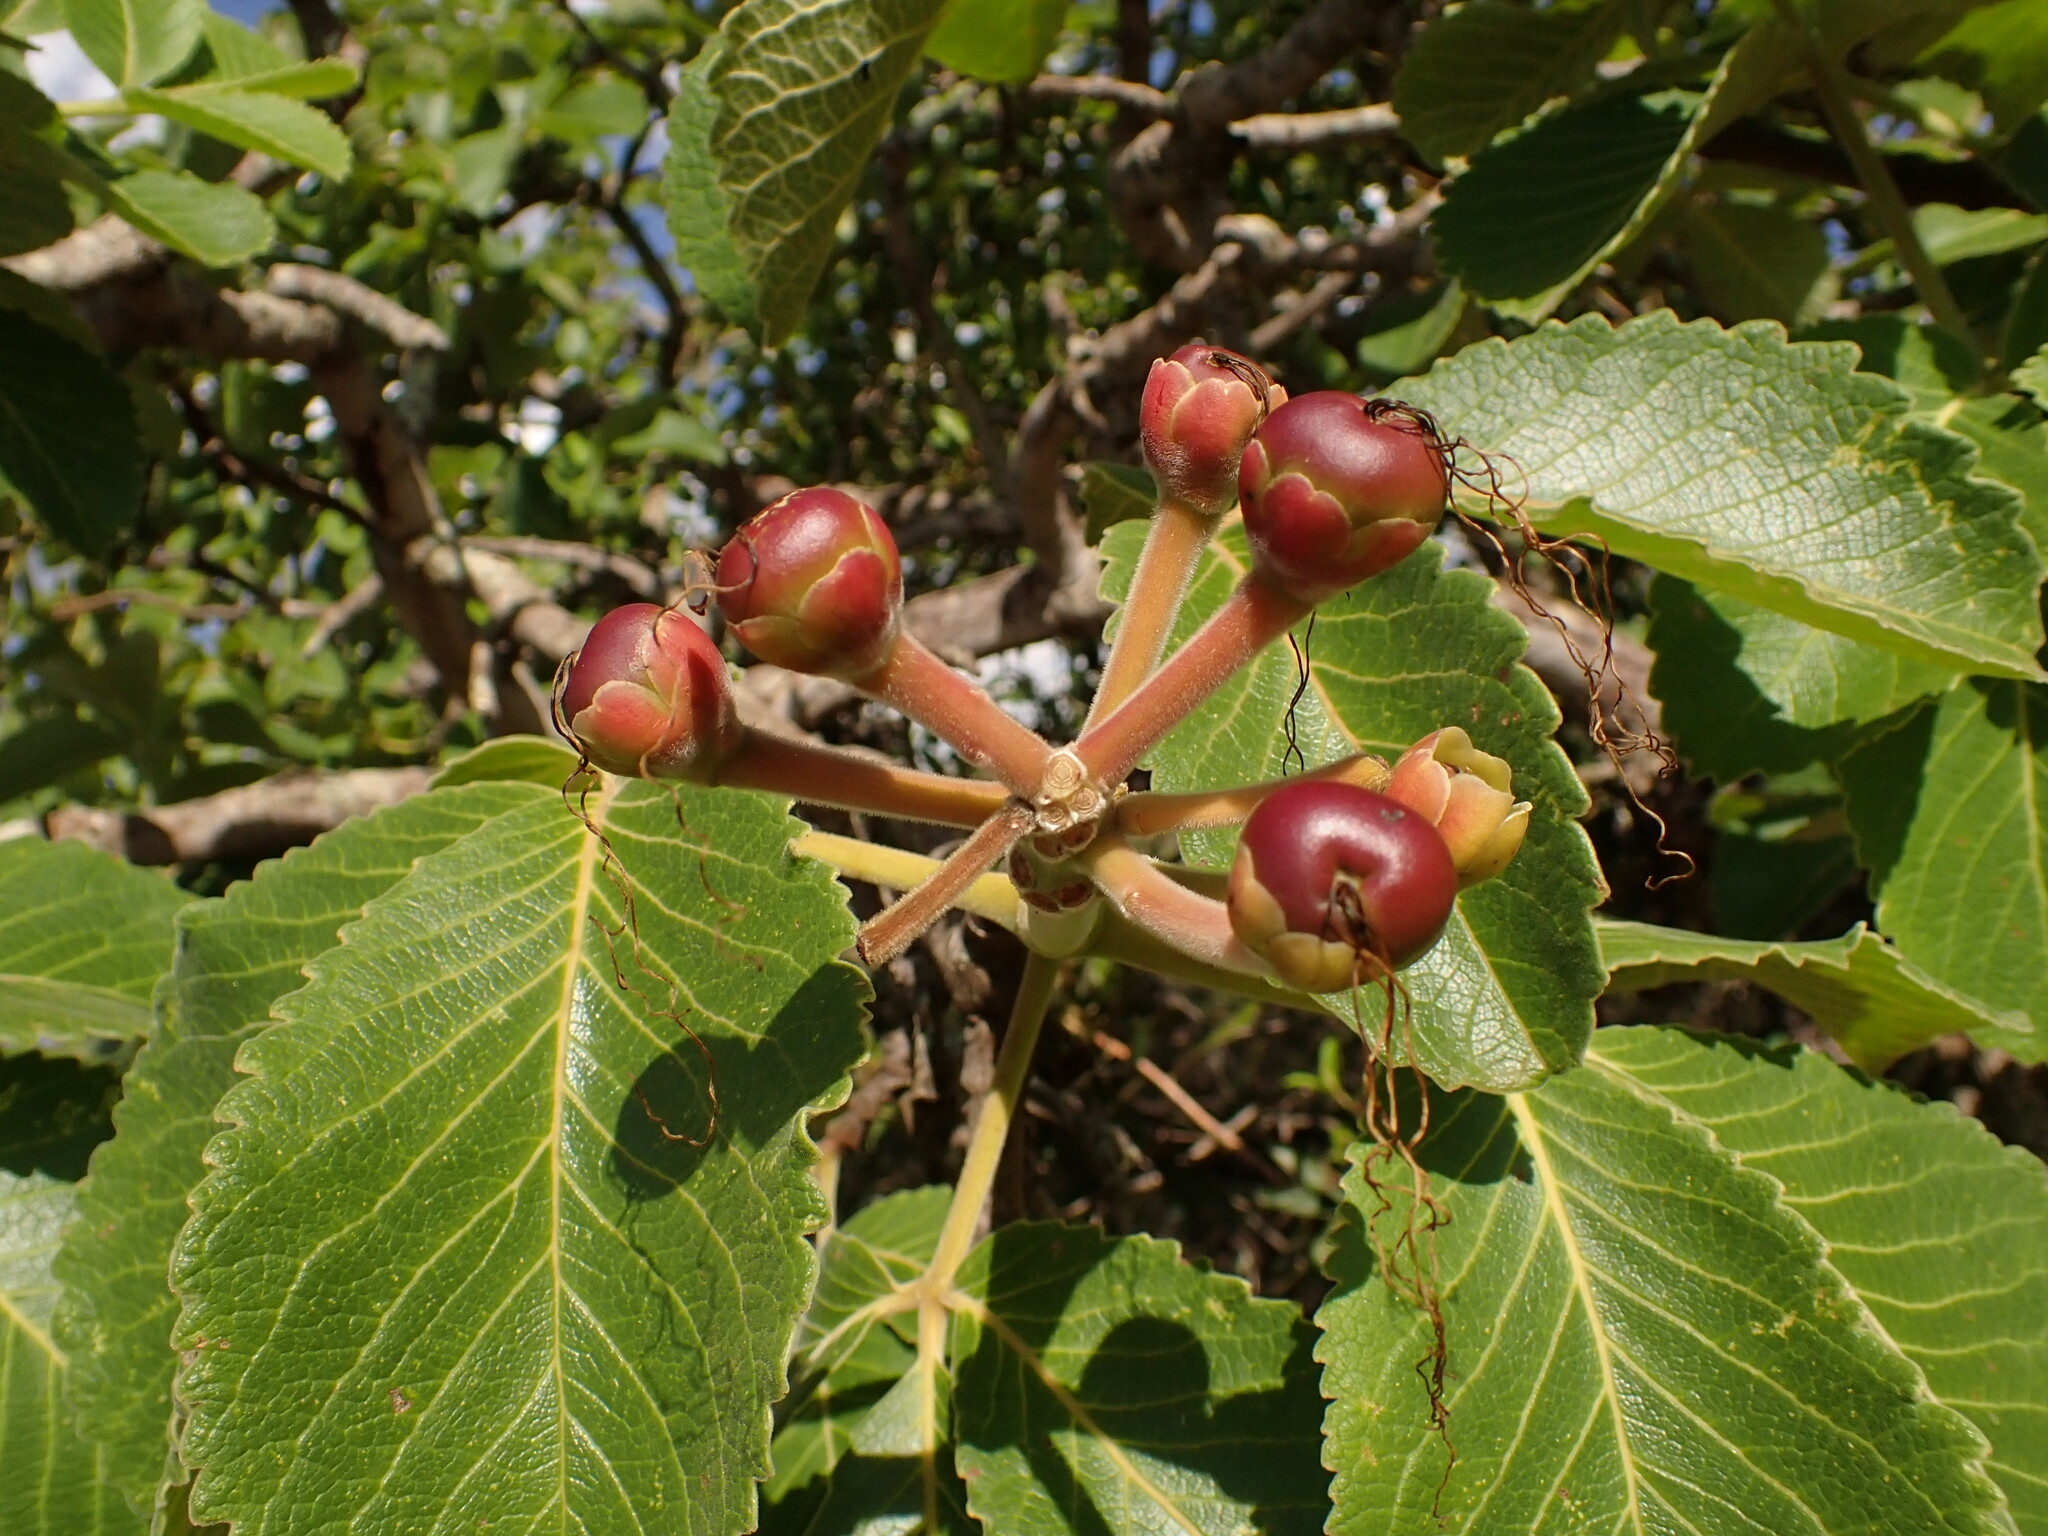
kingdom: Plantae
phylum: Tracheophyta
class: Magnoliopsida
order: Malpighiales
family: Caryocaraceae
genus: Caryocar
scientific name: Caryocar brasiliense
